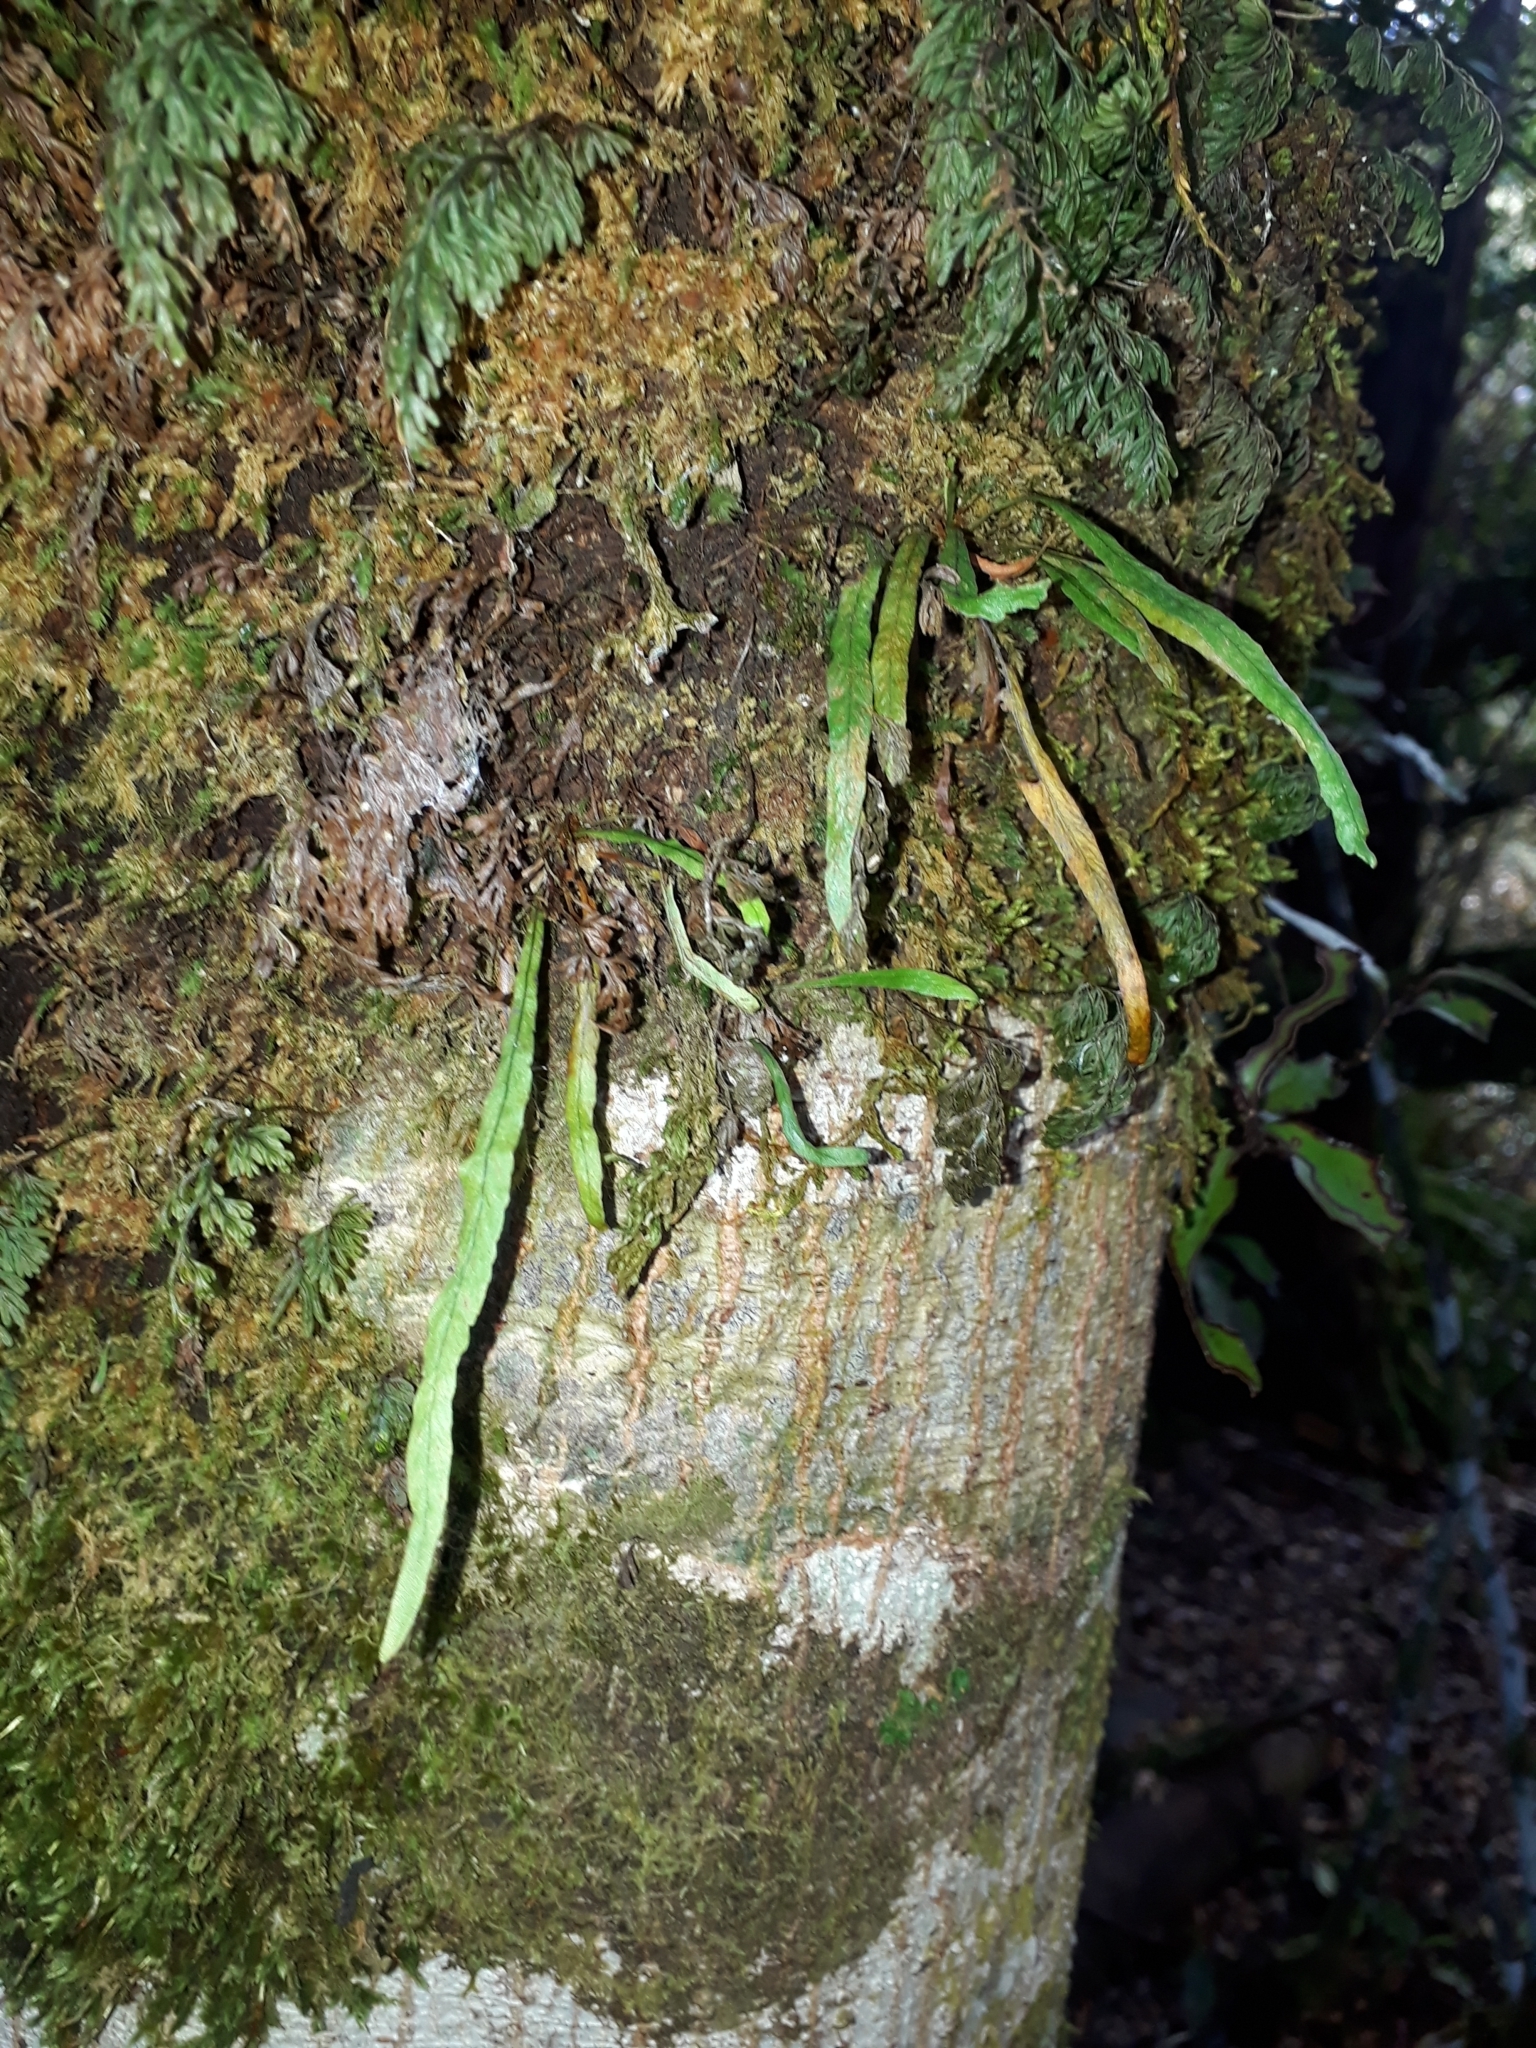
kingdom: Plantae
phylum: Tracheophyta
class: Polypodiopsida
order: Polypodiales
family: Polypodiaceae
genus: Notogrammitis
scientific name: Notogrammitis angustifolia
